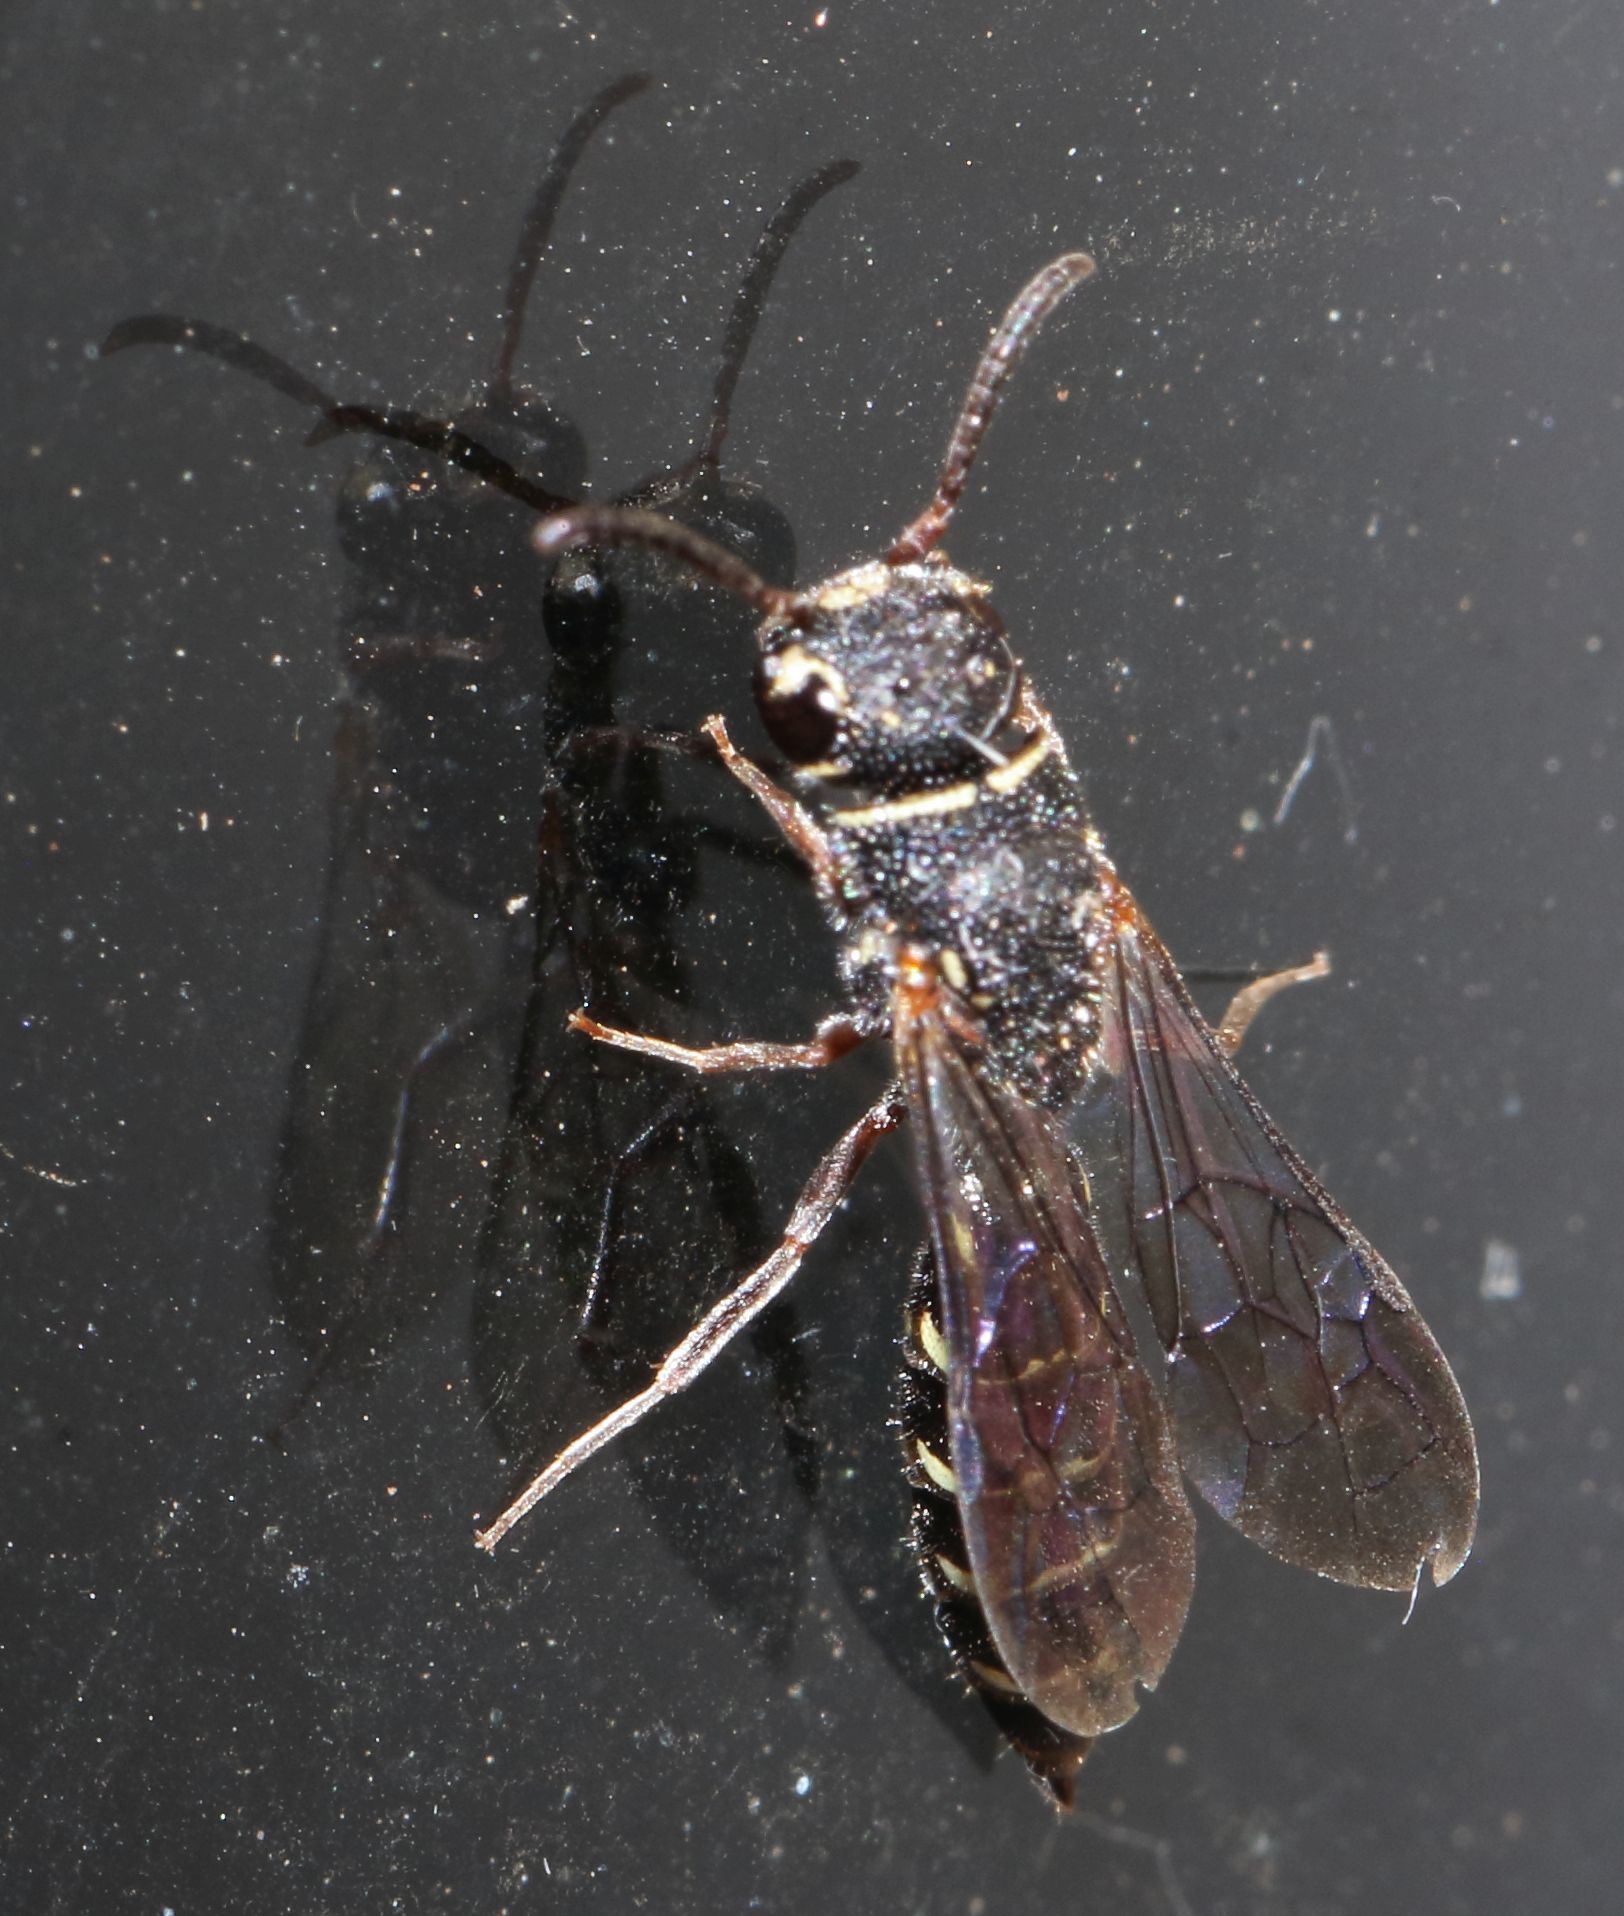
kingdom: Animalia
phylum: Arthropoda
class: Insecta
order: Hymenoptera
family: Sapygidae
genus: Sapygina
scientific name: Sapygina
